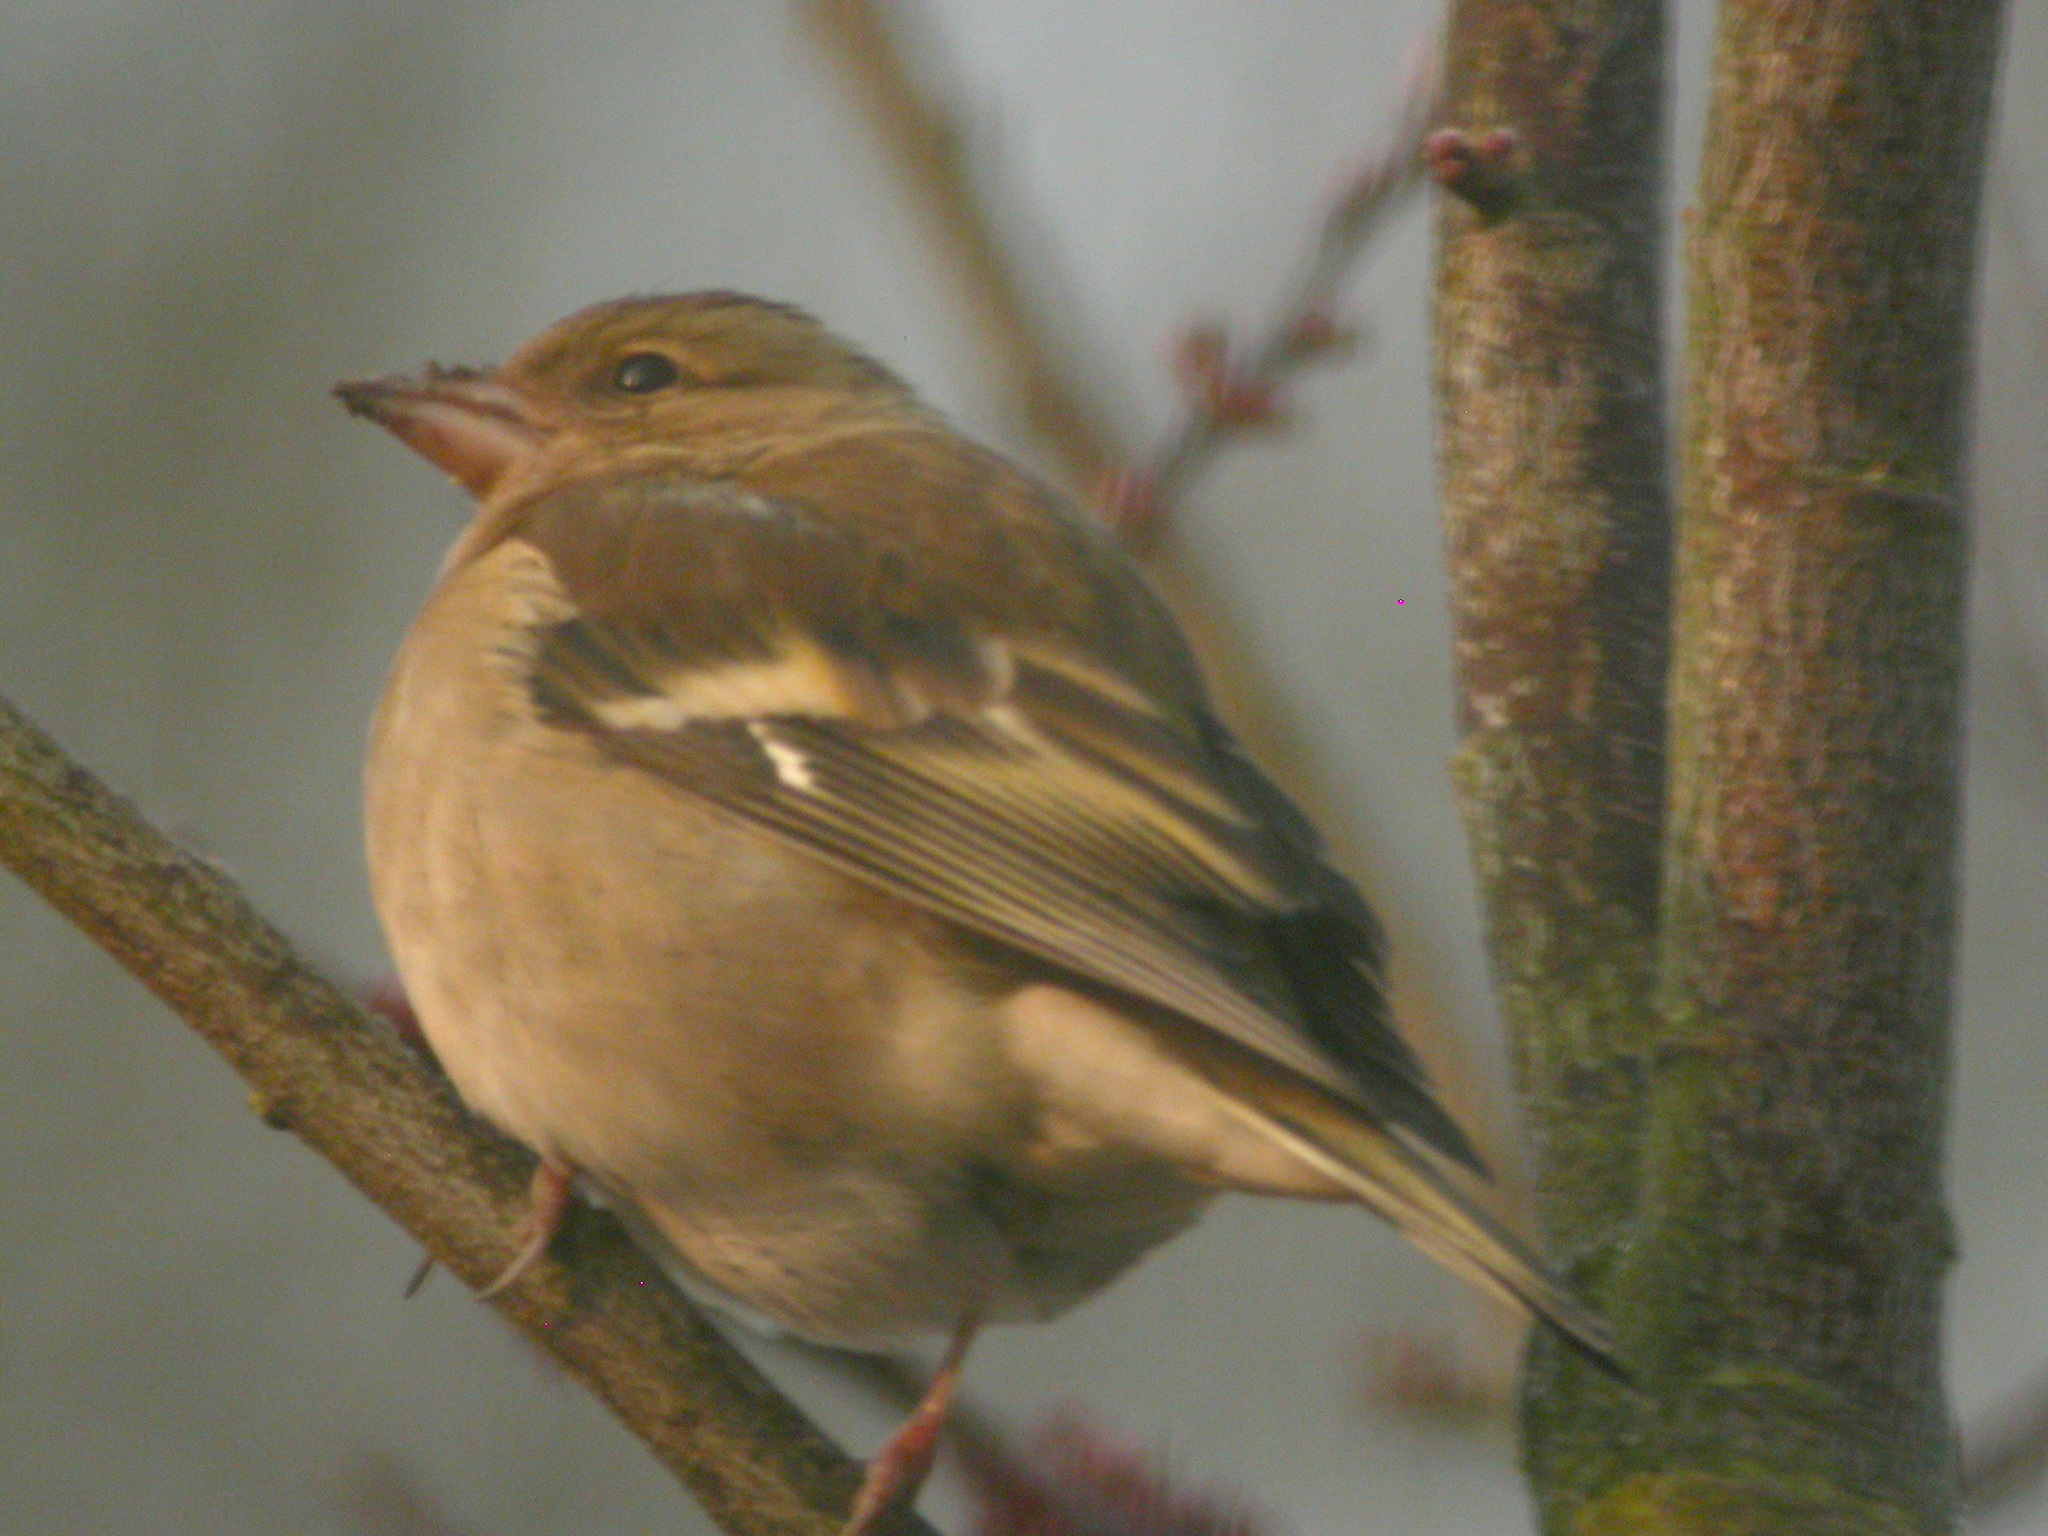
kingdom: Animalia
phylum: Chordata
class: Aves
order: Passeriformes
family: Fringillidae
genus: Fringilla
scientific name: Fringilla coelebs
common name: Common chaffinch
